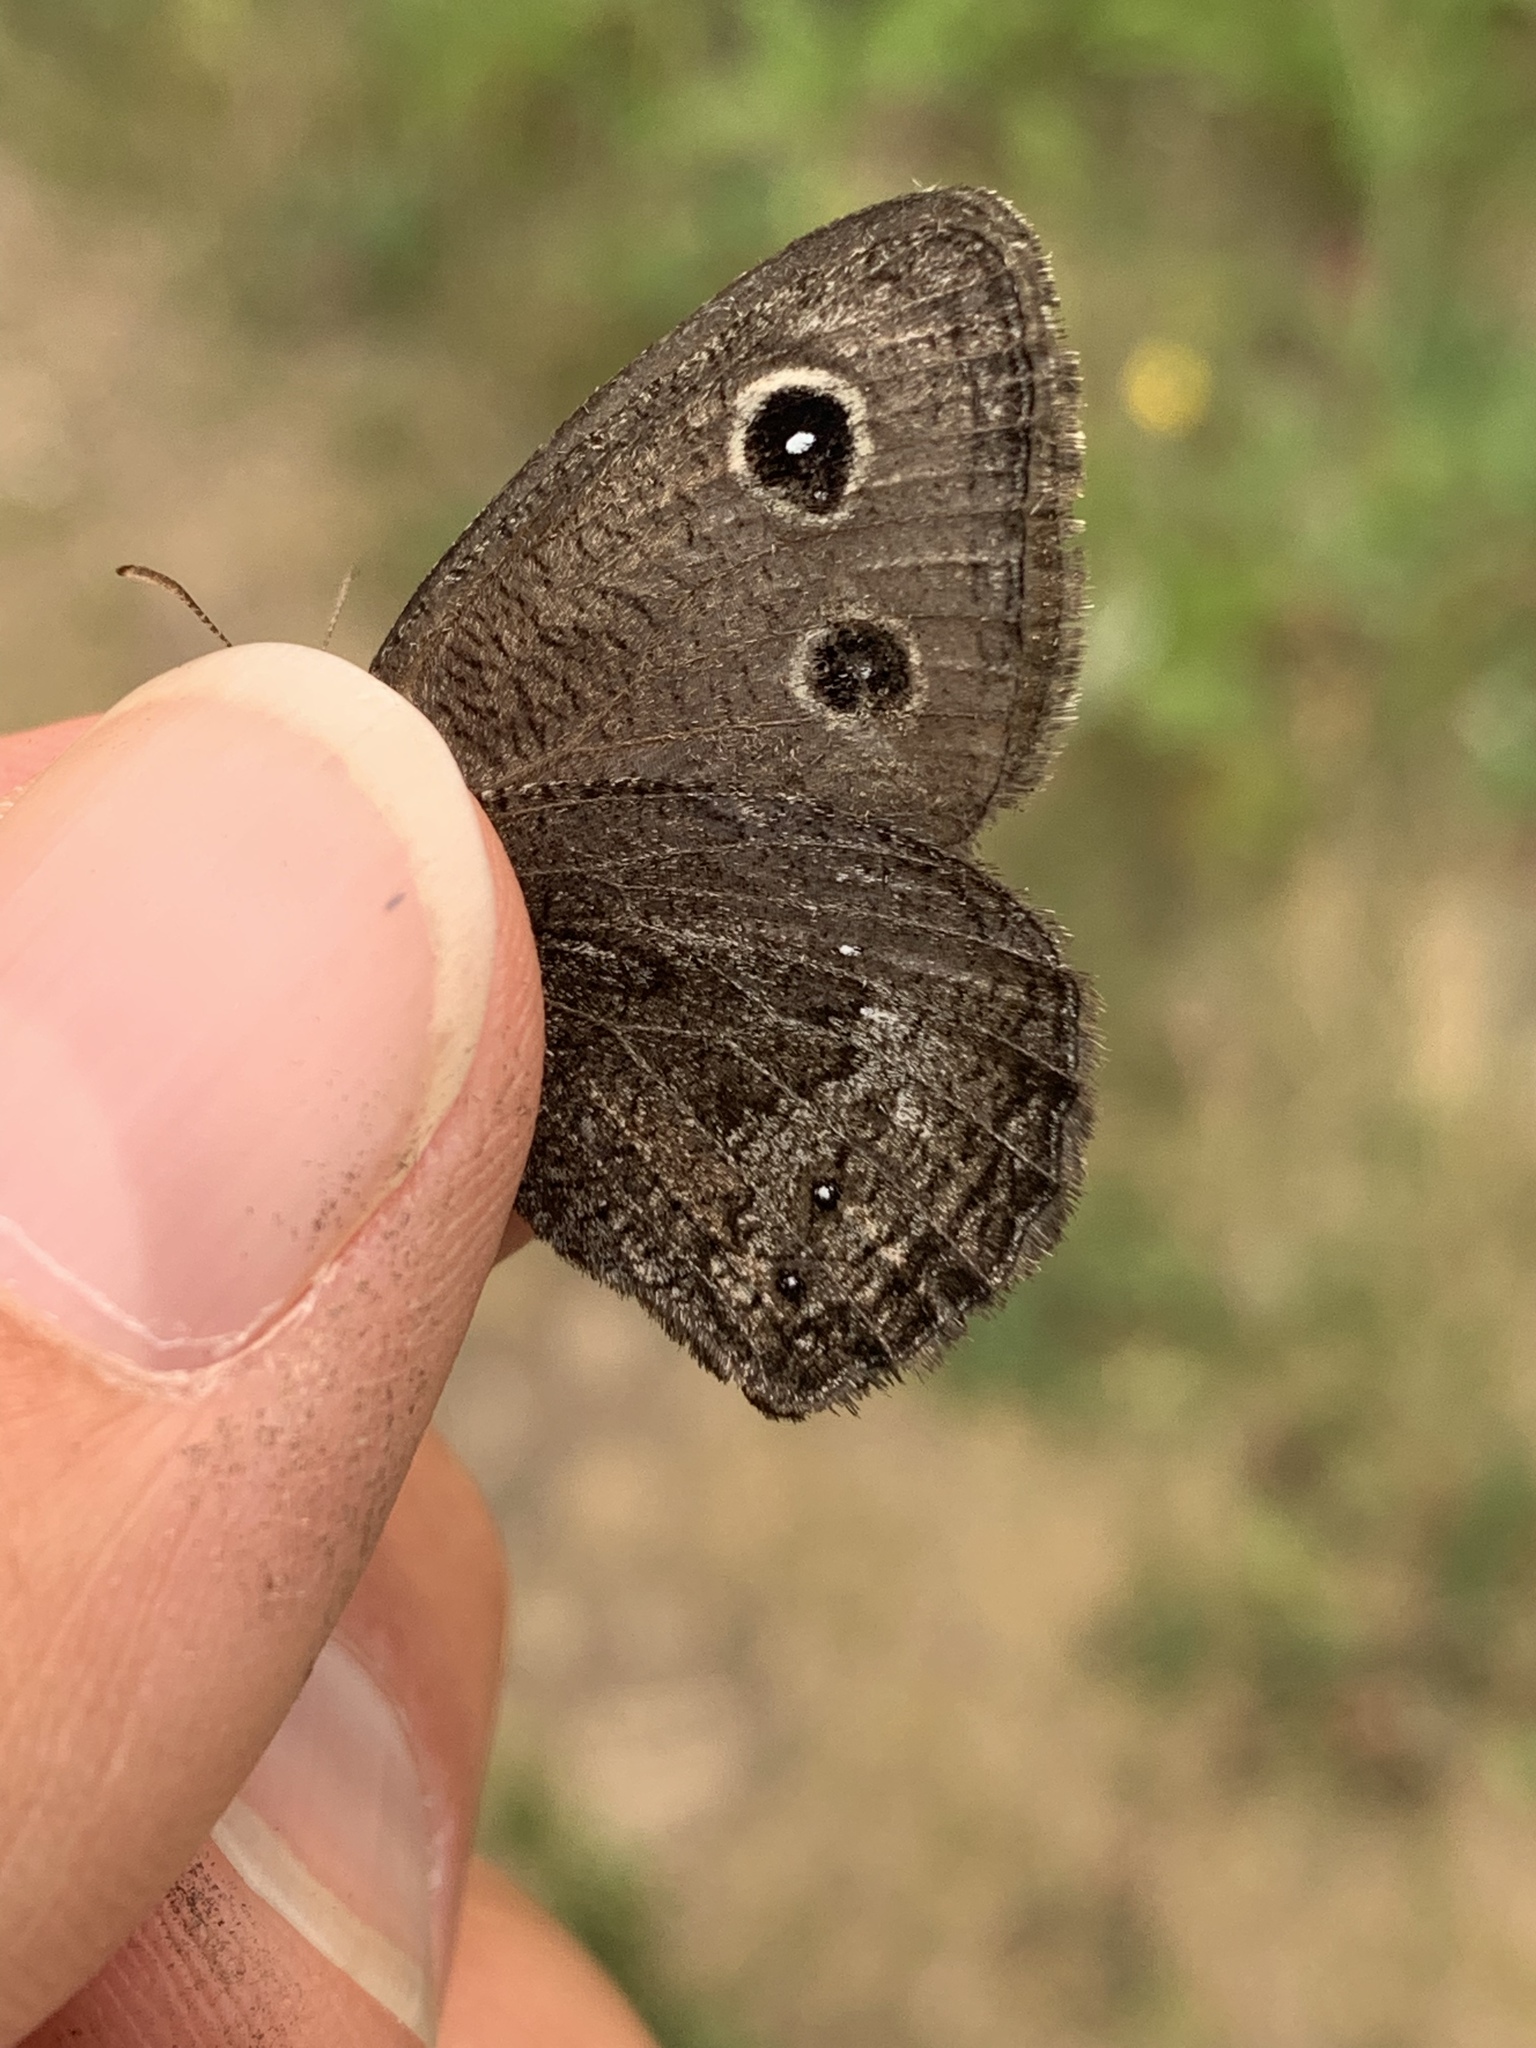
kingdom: Animalia
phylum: Arthropoda
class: Insecta
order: Lepidoptera
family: Nymphalidae
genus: Cercyonis
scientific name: Cercyonis oetus
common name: Small wood-nymph
